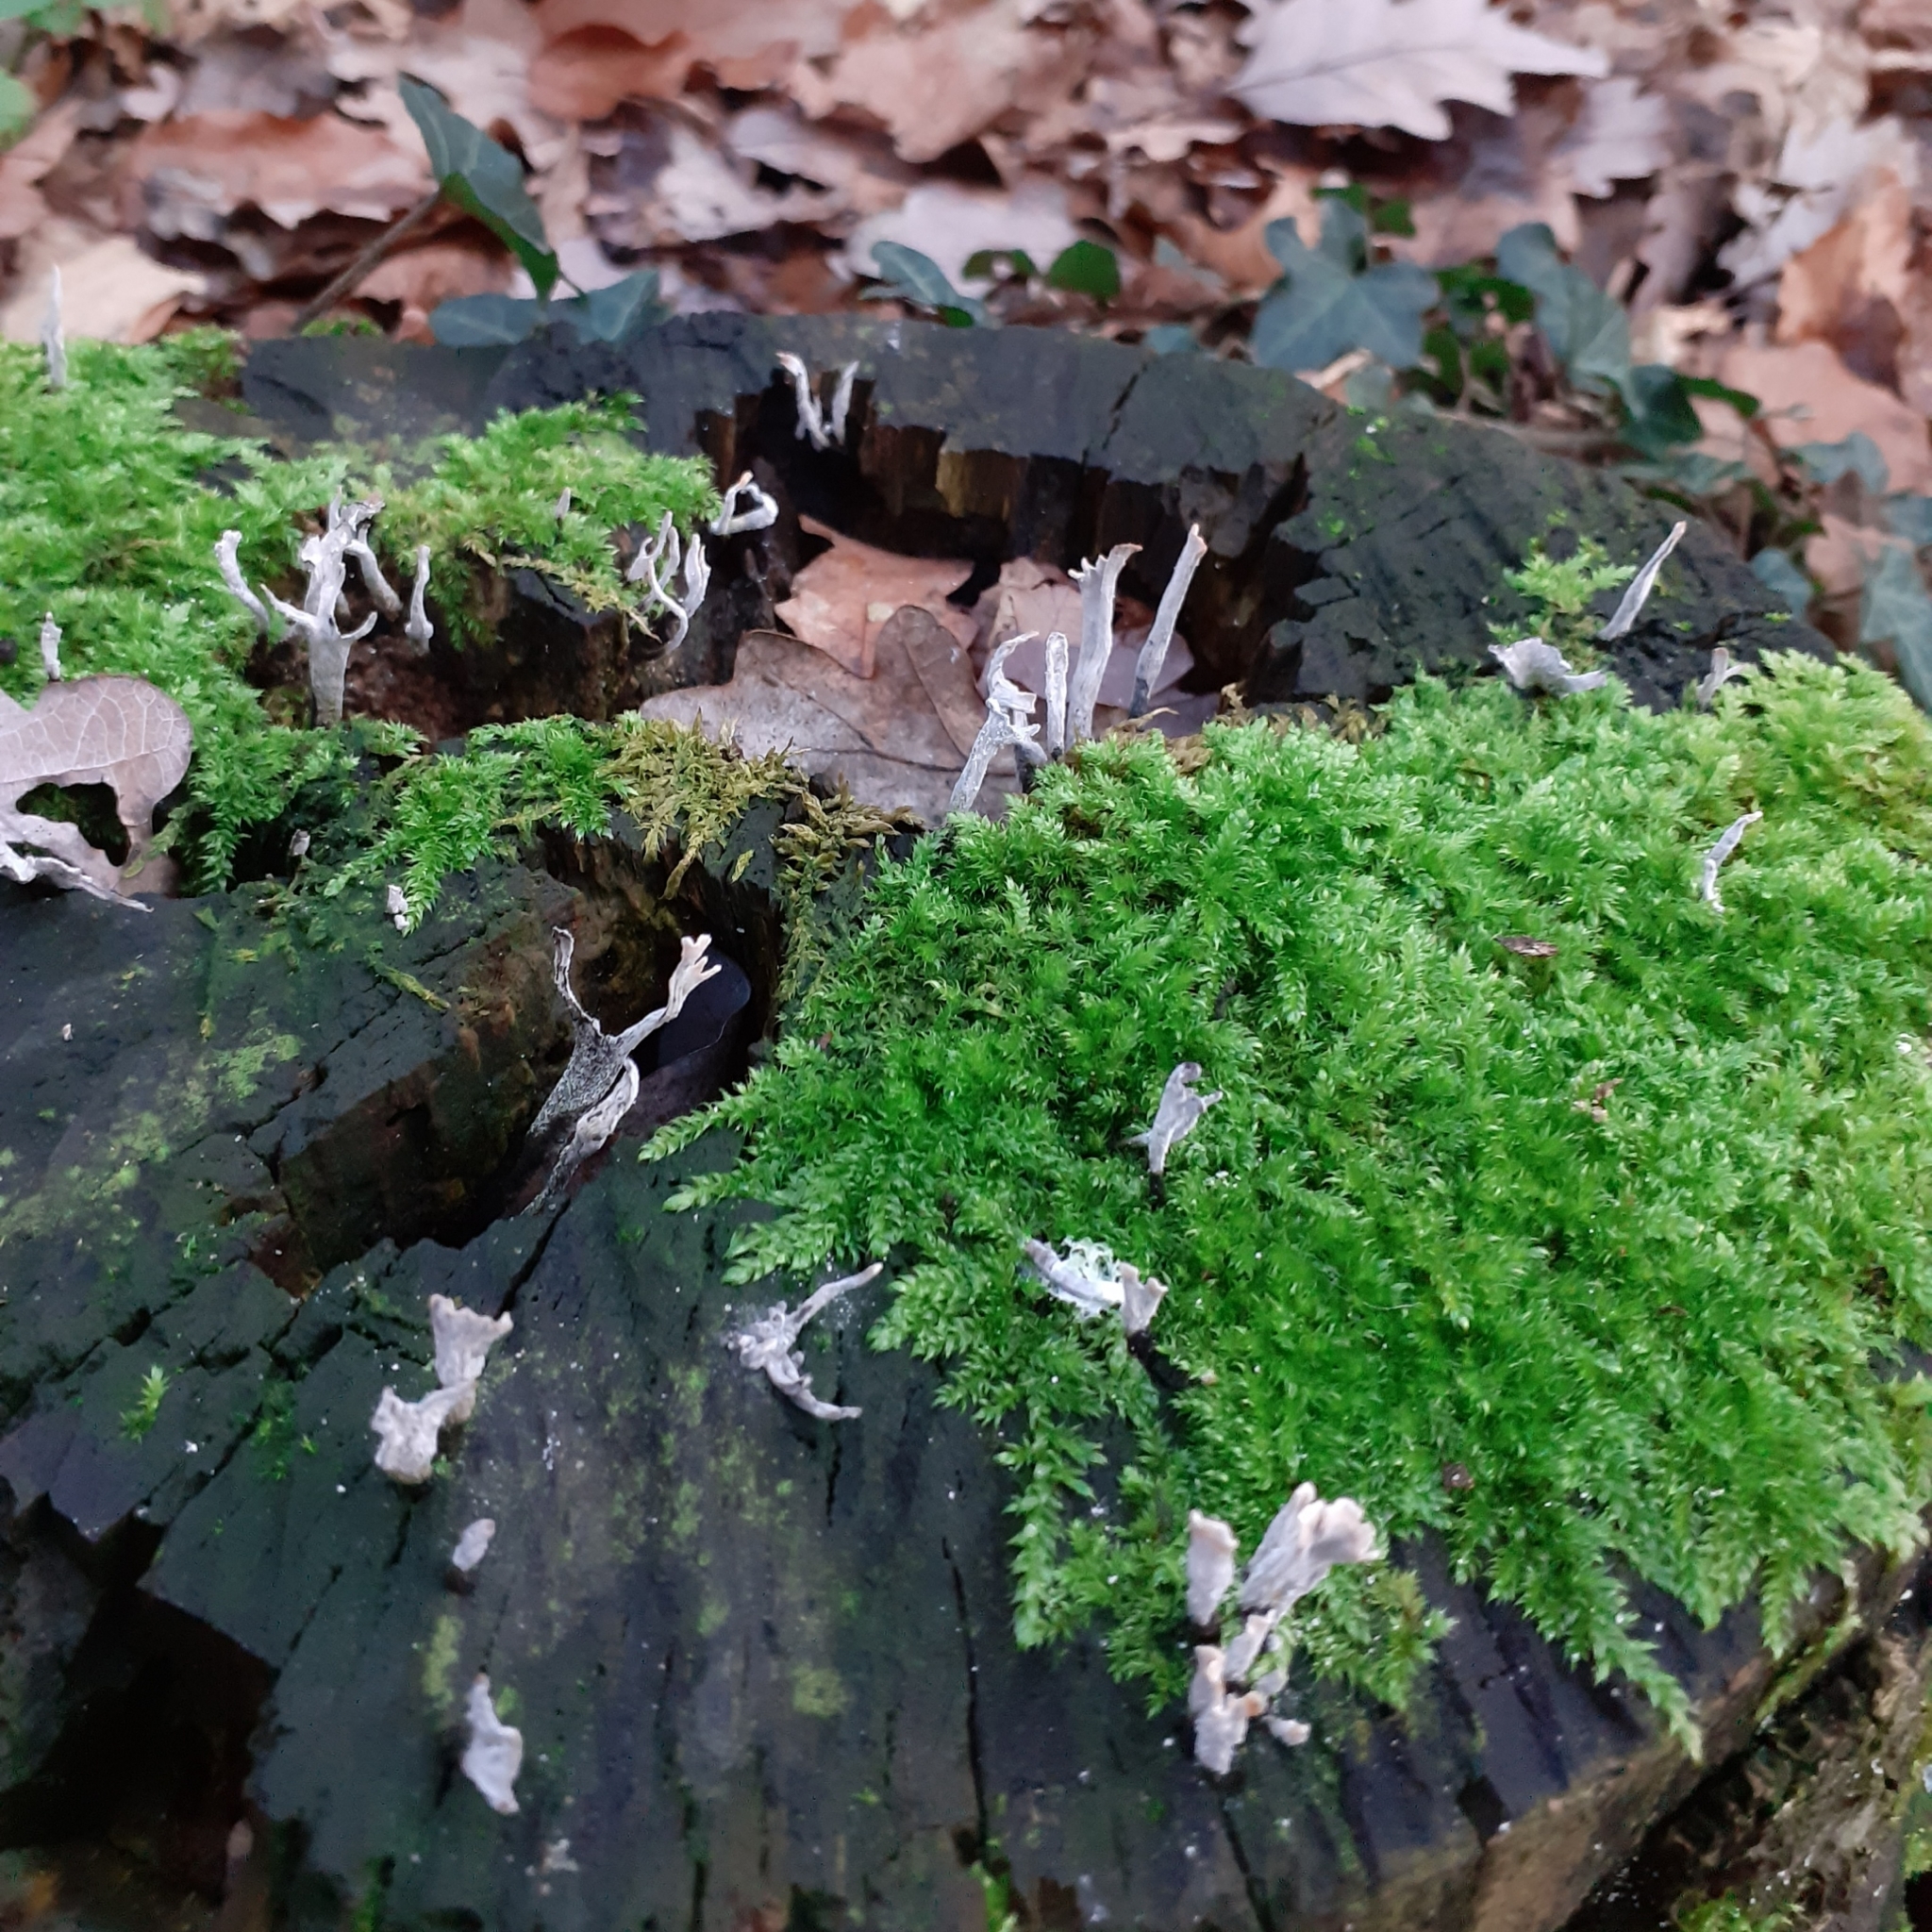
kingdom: Fungi
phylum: Ascomycota
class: Sordariomycetes
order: Xylariales
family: Xylariaceae
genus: Xylaria
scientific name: Xylaria hypoxylon
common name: Candle-snuff fungus
